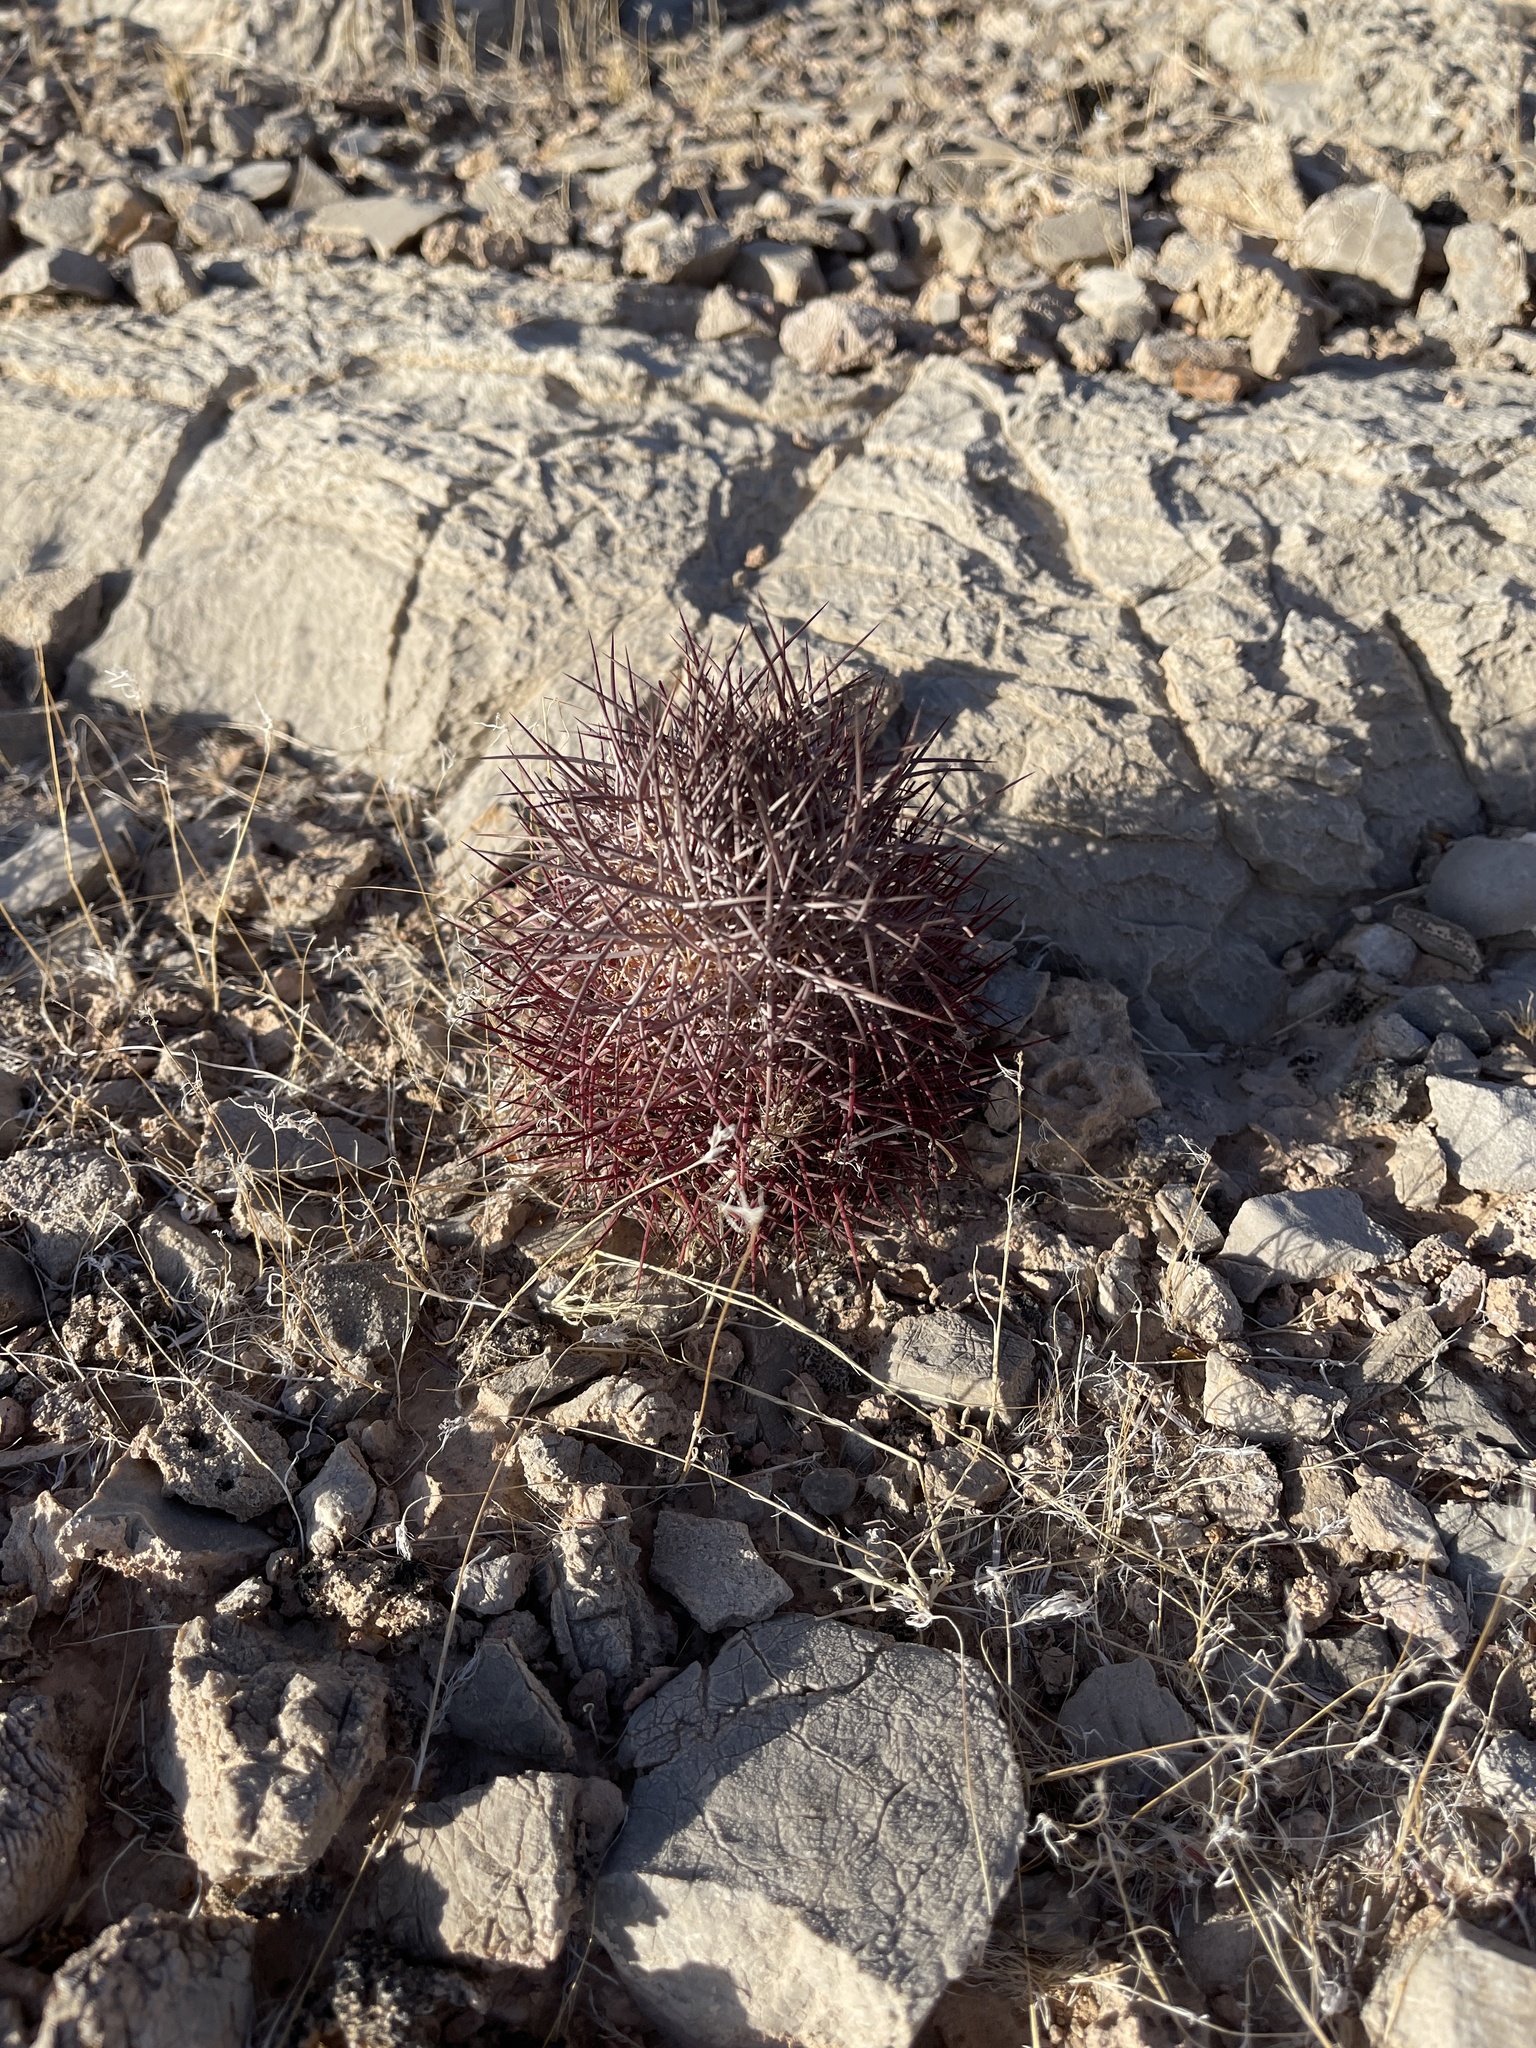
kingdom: Plantae
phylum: Tracheophyta
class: Magnoliopsida
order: Caryophyllales
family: Cactaceae
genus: Sclerocactus
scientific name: Sclerocactus johnsonii
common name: Eight-spine fishhook cactus
